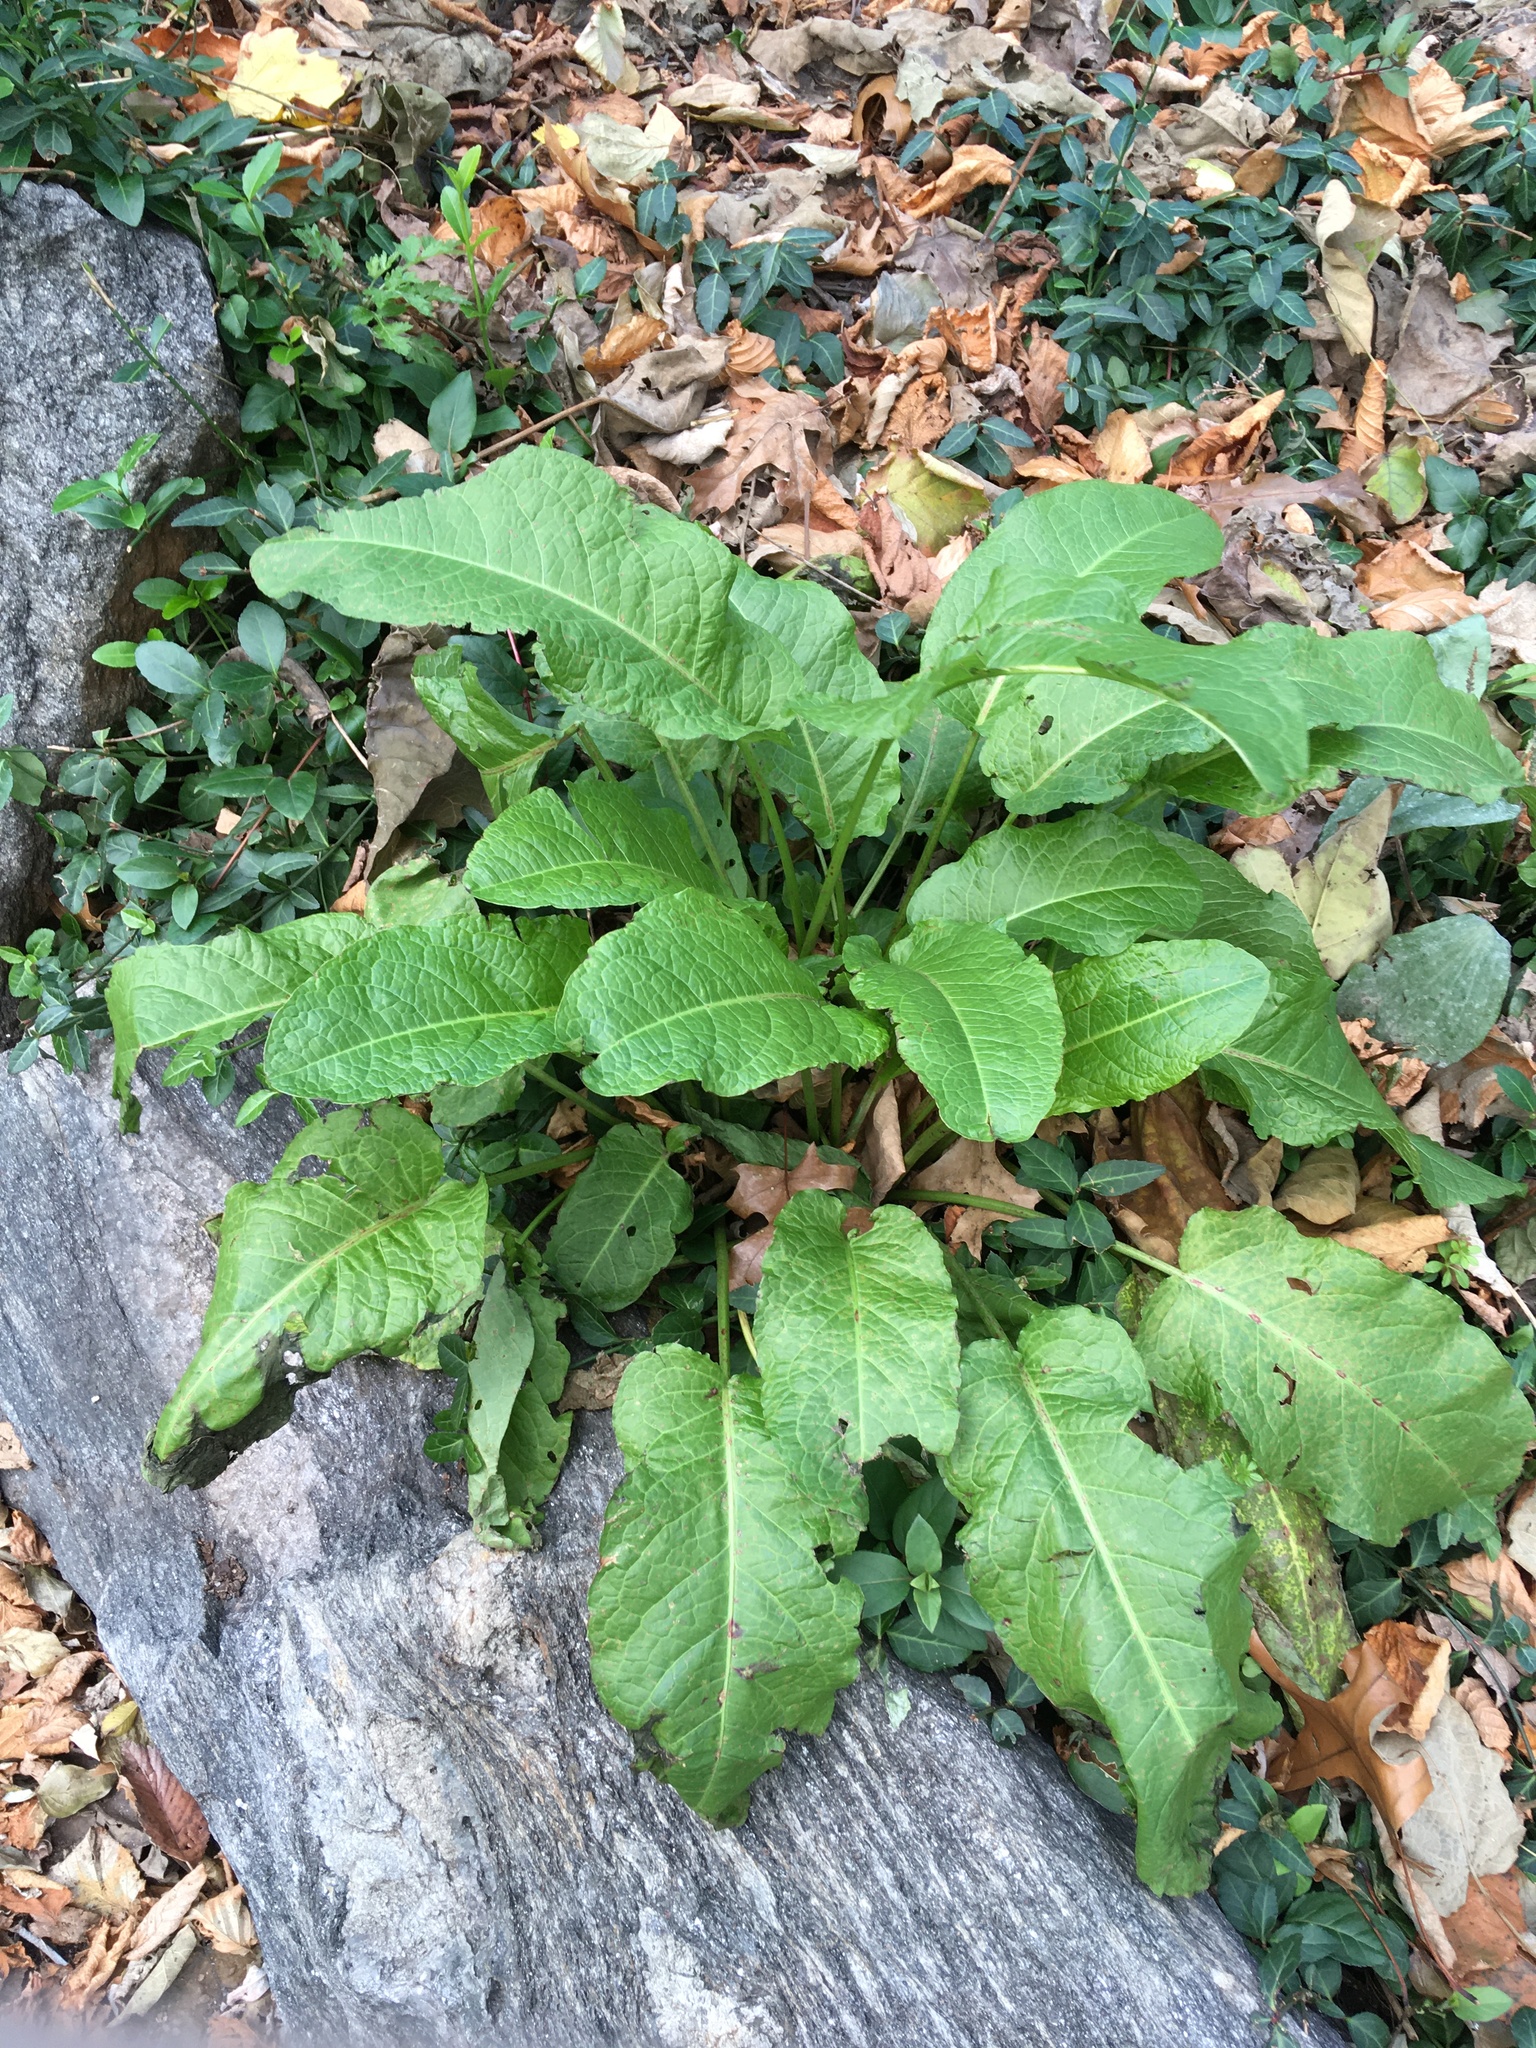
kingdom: Plantae
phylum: Tracheophyta
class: Magnoliopsida
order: Caryophyllales
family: Polygonaceae
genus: Rumex
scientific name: Rumex obtusifolius
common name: Bitter dock
